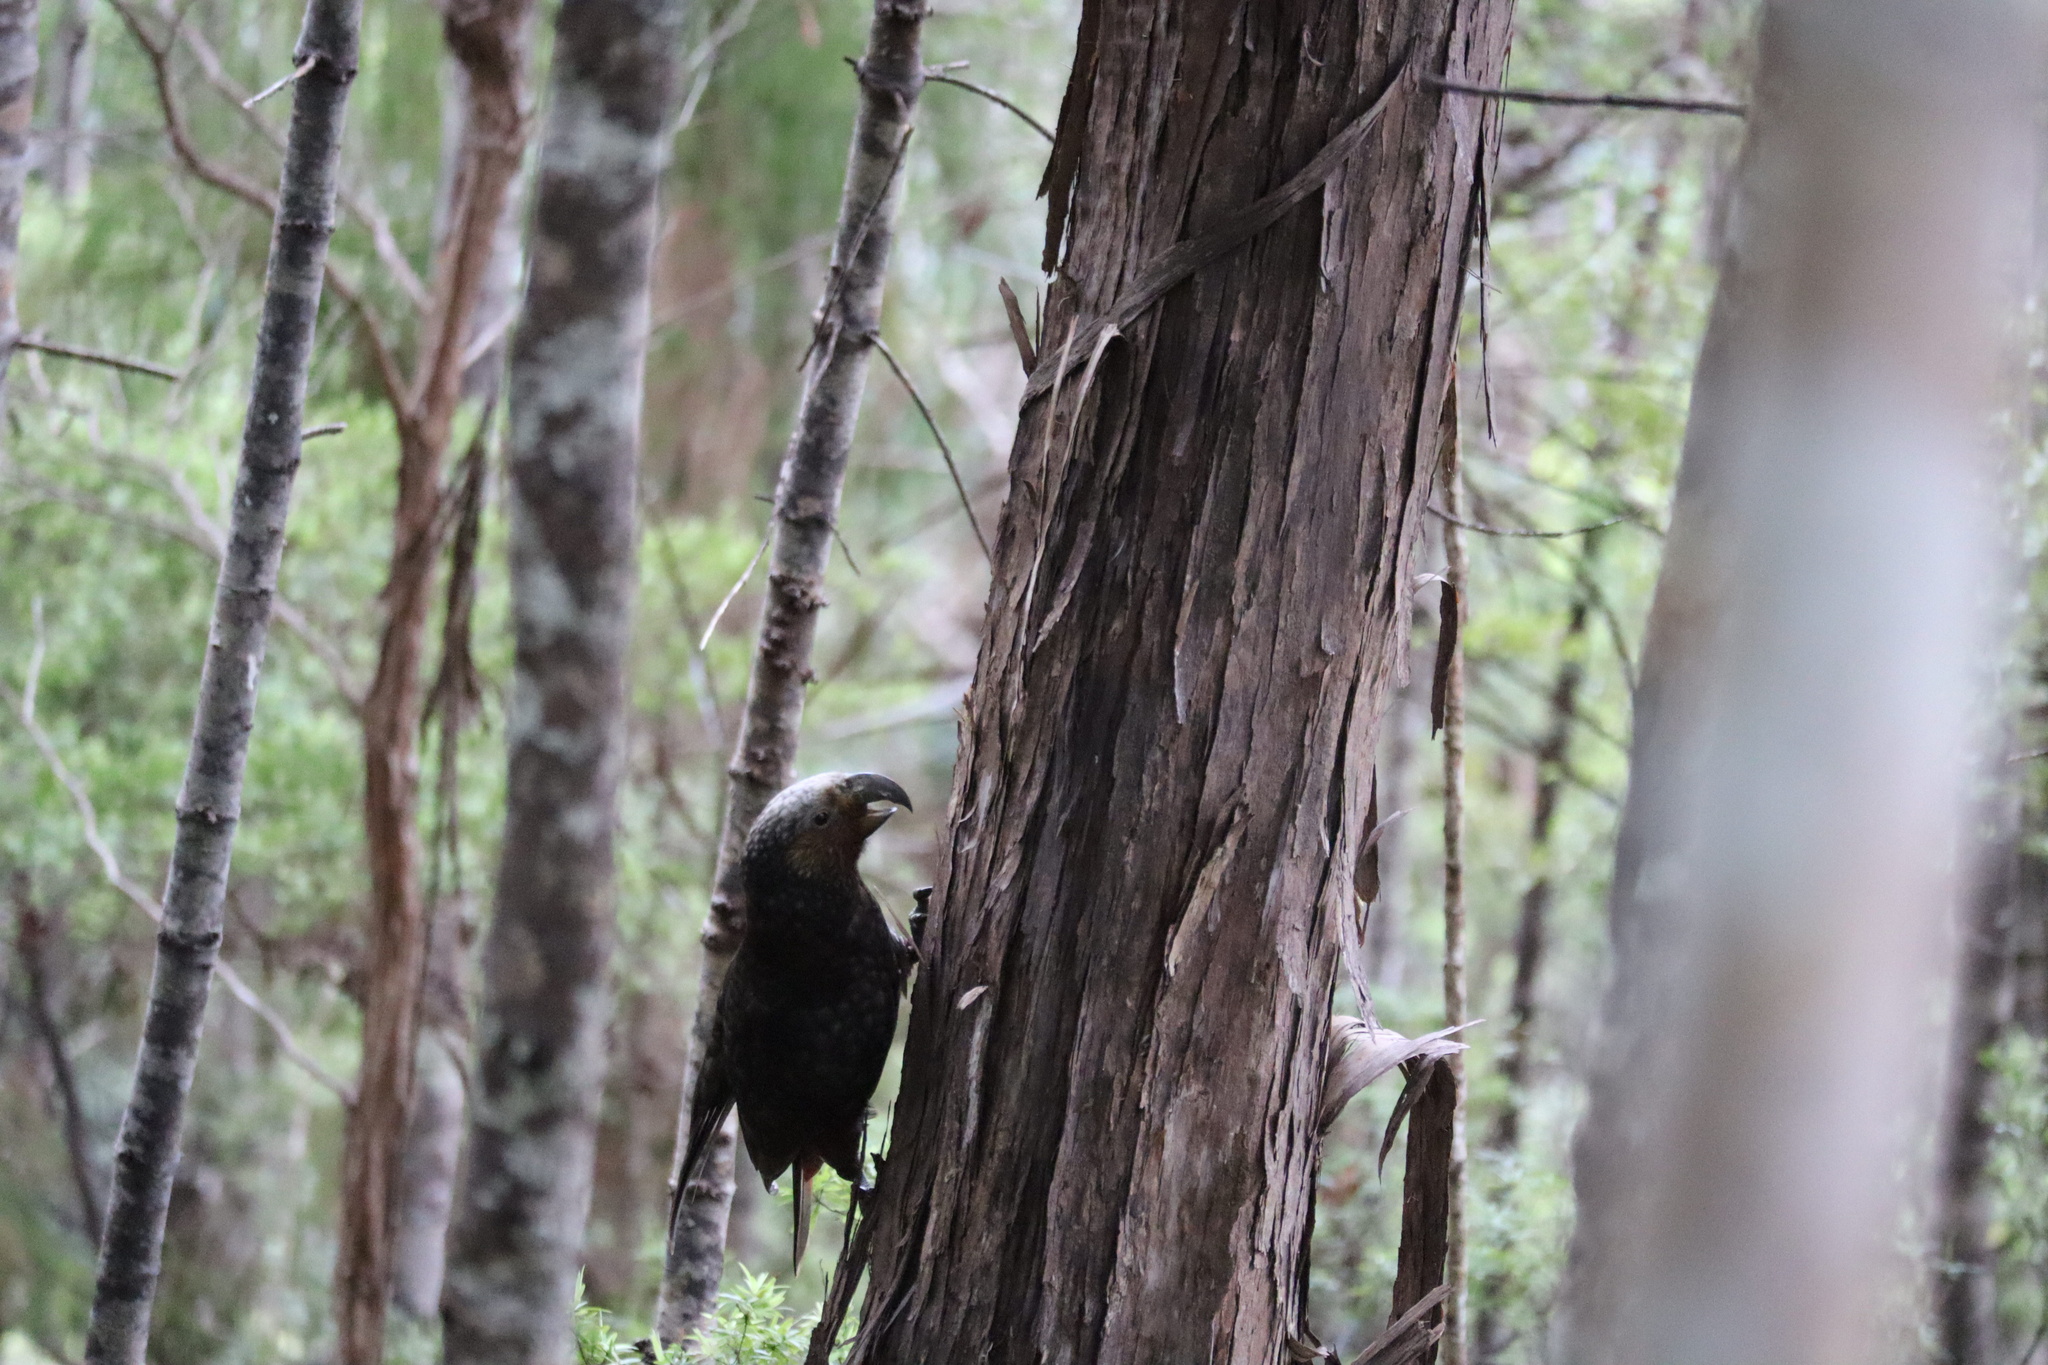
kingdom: Animalia
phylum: Chordata
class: Aves
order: Psittaciformes
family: Psittacidae
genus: Nestor
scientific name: Nestor meridionalis
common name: New zealand kaka
